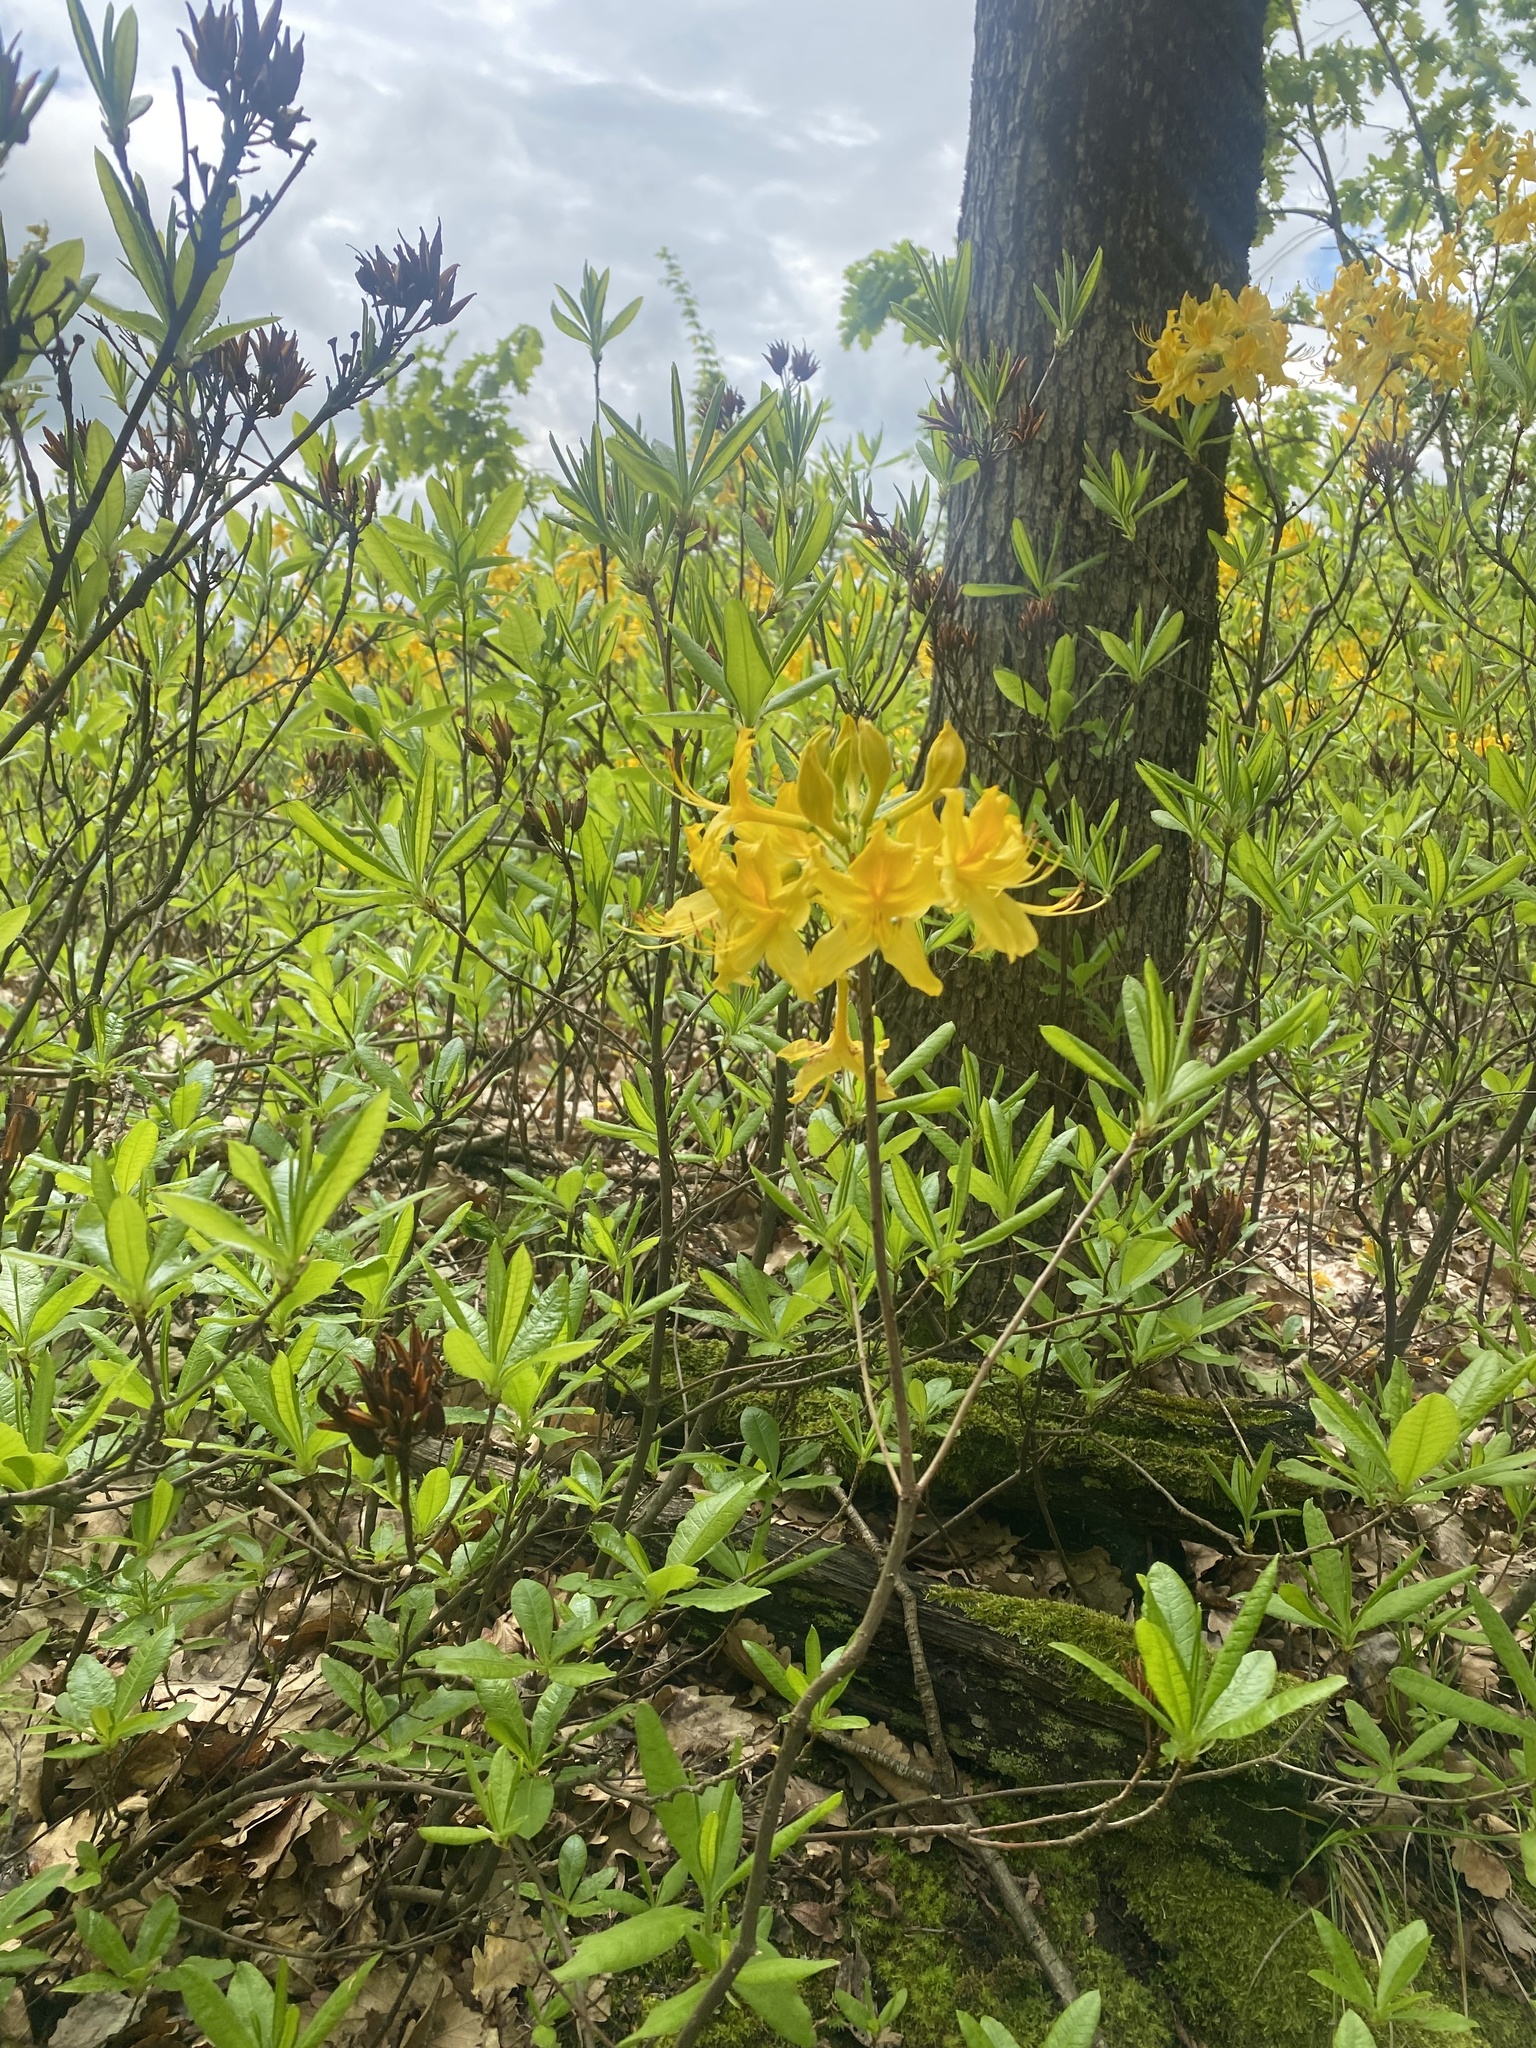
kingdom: Plantae
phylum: Tracheophyta
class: Magnoliopsida
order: Ericales
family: Ericaceae
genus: Rhododendron
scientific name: Rhododendron luteum
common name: Yellow azalea
